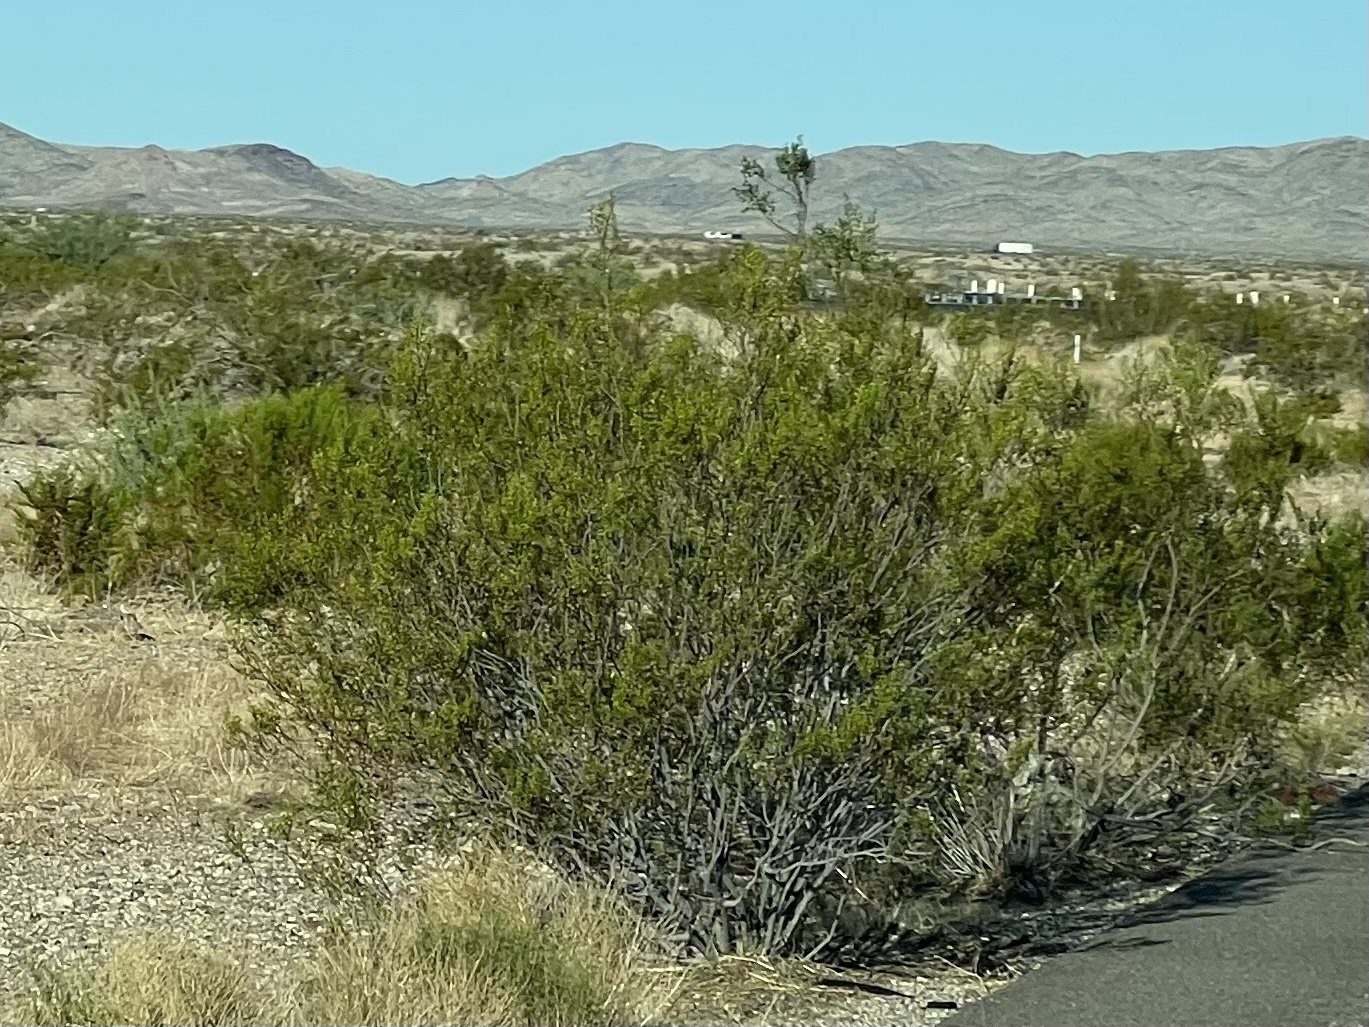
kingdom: Plantae
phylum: Tracheophyta
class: Magnoliopsida
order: Zygophyllales
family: Zygophyllaceae
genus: Larrea
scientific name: Larrea tridentata
